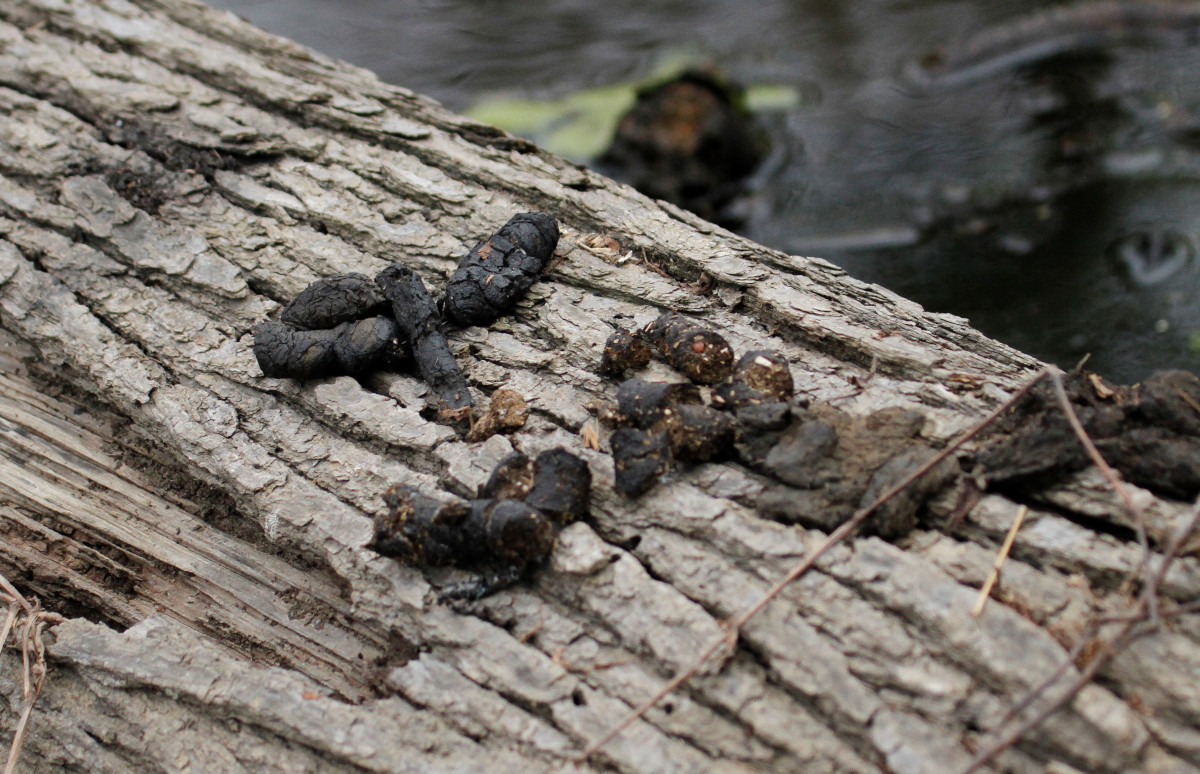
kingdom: Animalia
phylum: Chordata
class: Mammalia
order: Carnivora
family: Procyonidae
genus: Procyon
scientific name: Procyon lotor
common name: Raccoon
